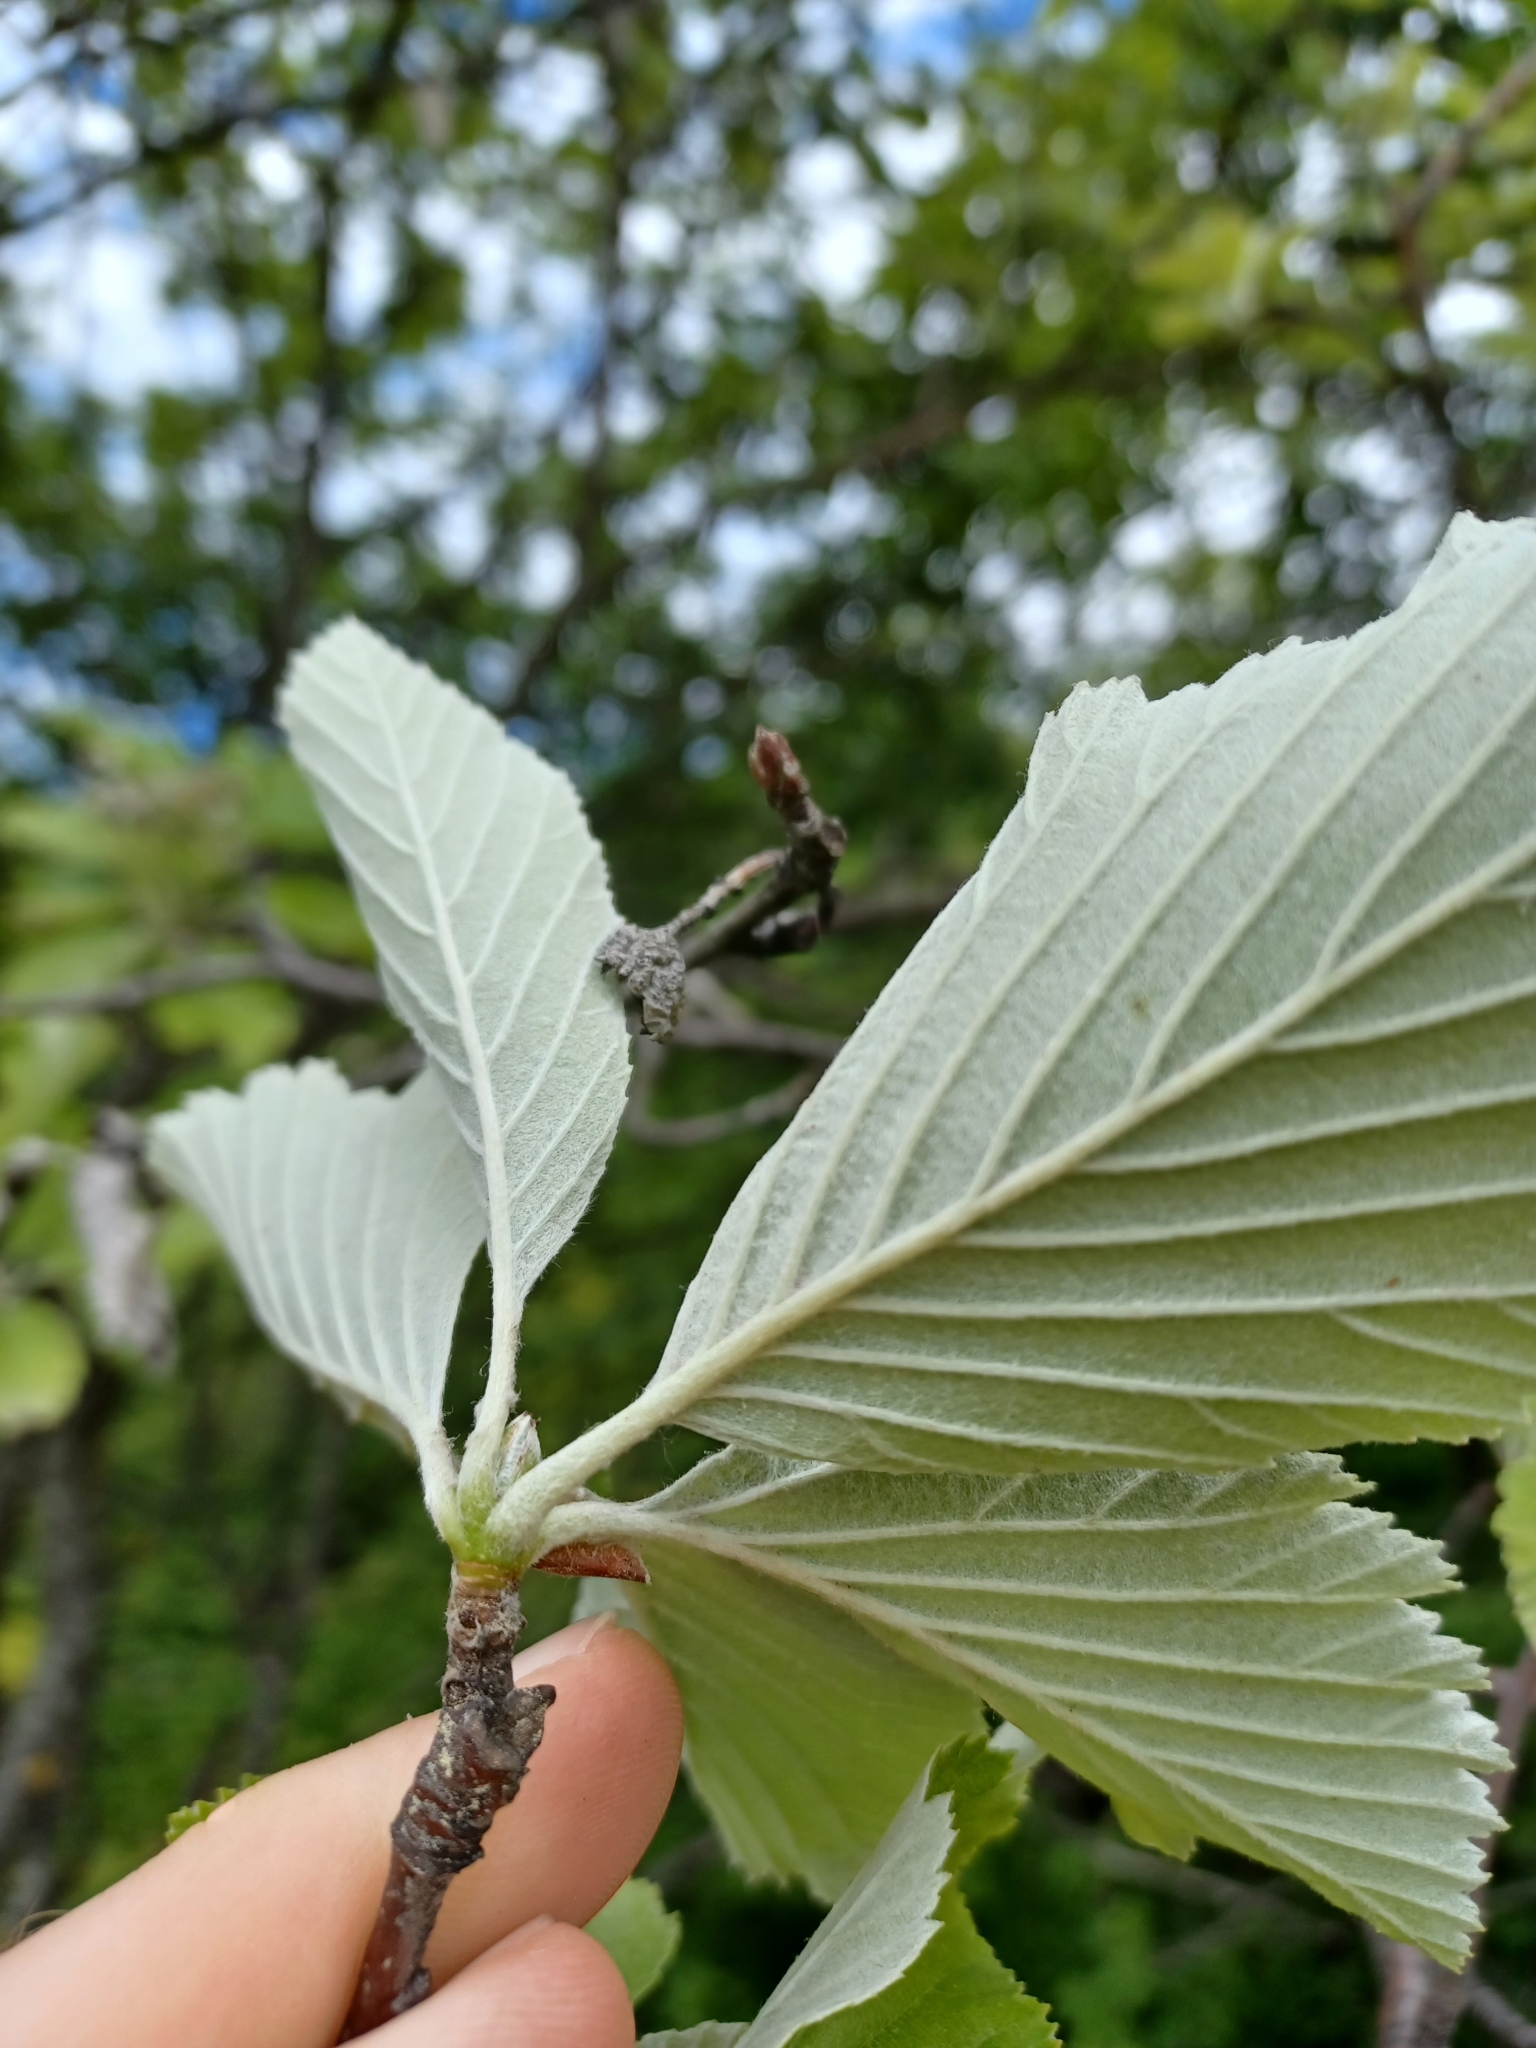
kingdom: Plantae
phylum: Tracheophyta
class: Magnoliopsida
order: Rosales
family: Rosaceae
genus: Aria
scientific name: Aria
